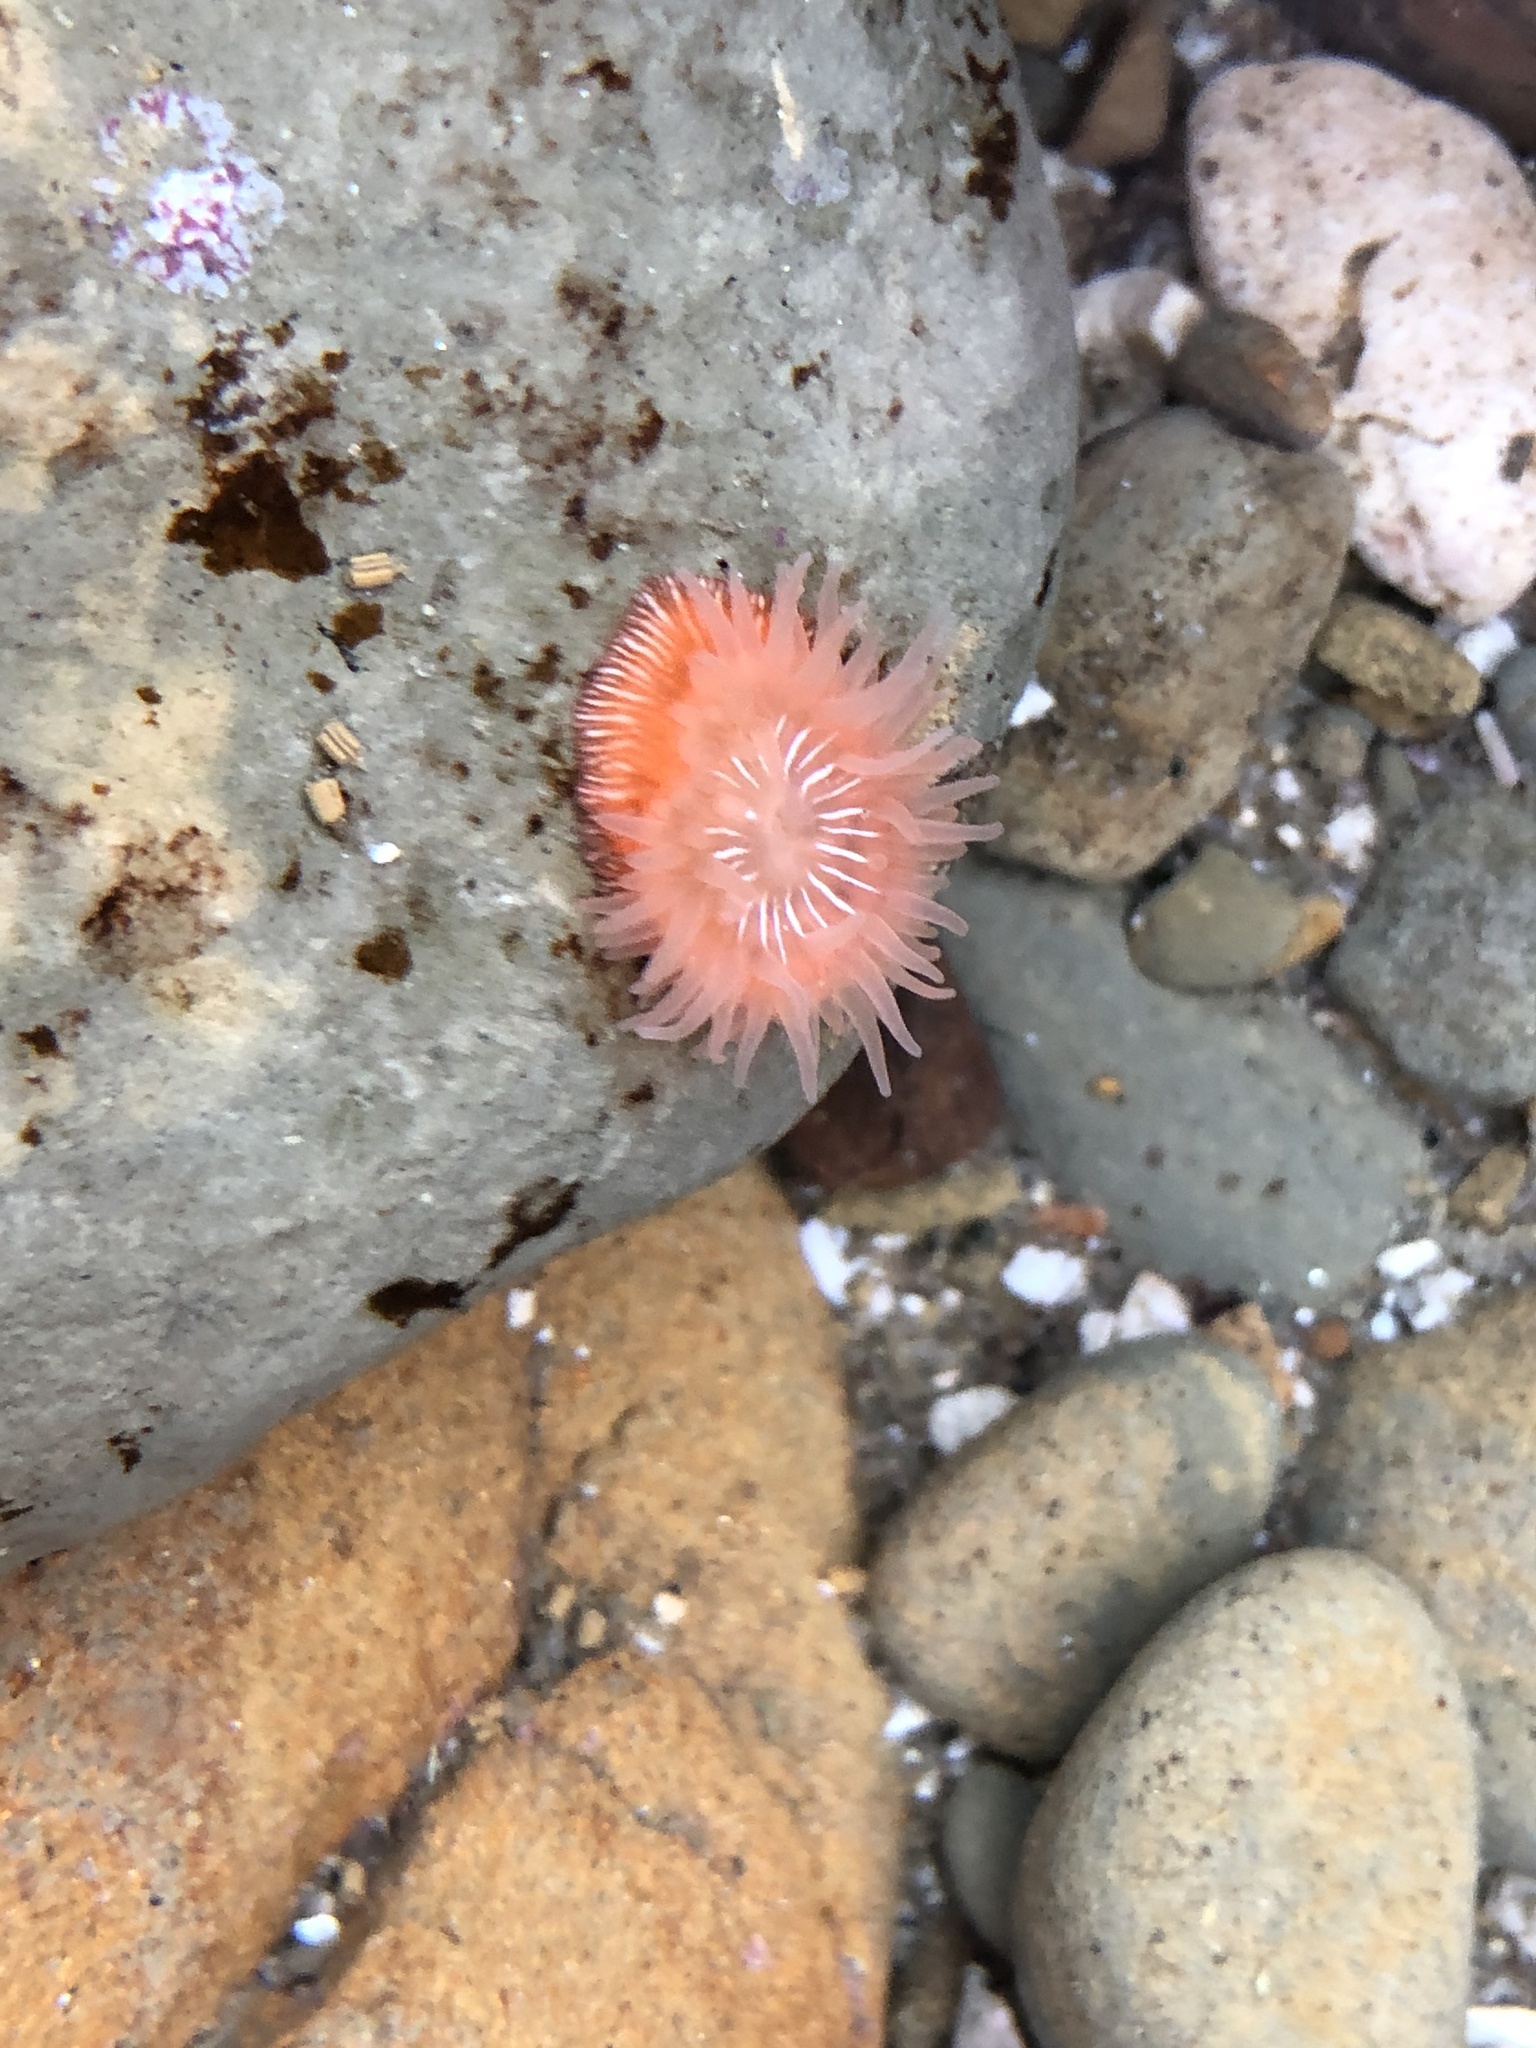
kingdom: Animalia
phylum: Cnidaria
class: Anthozoa
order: Actiniaria
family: Actiniidae
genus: Epiactis
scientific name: Epiactis prolifera
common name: Brooding anemone
